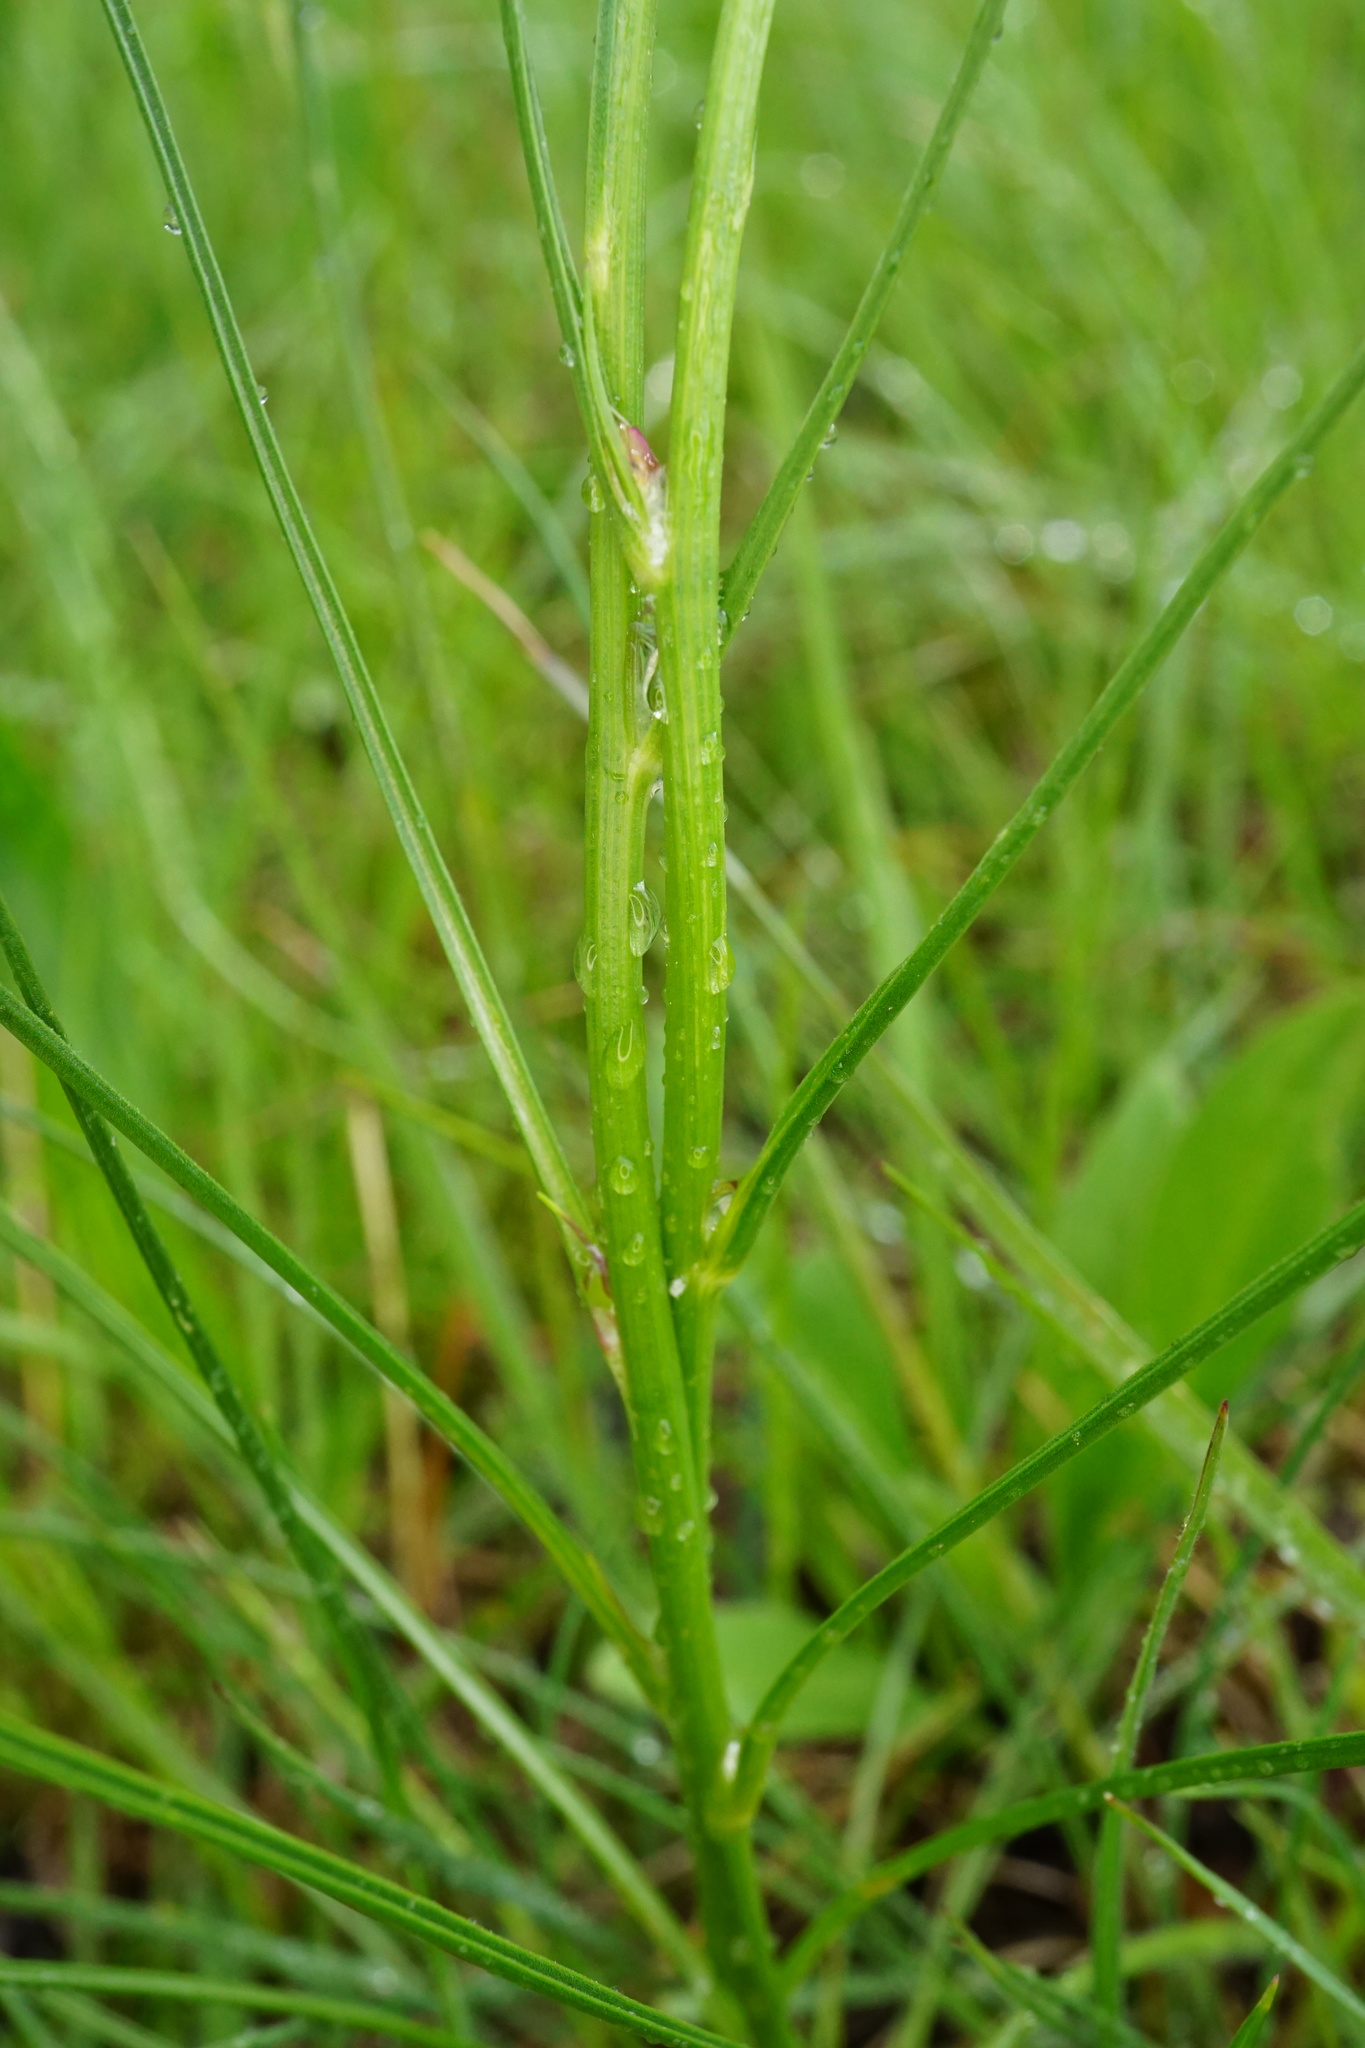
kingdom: Plantae
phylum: Tracheophyta
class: Magnoliopsida
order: Asterales
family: Asteraceae
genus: Scorzonera
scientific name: Scorzonera purpurea
